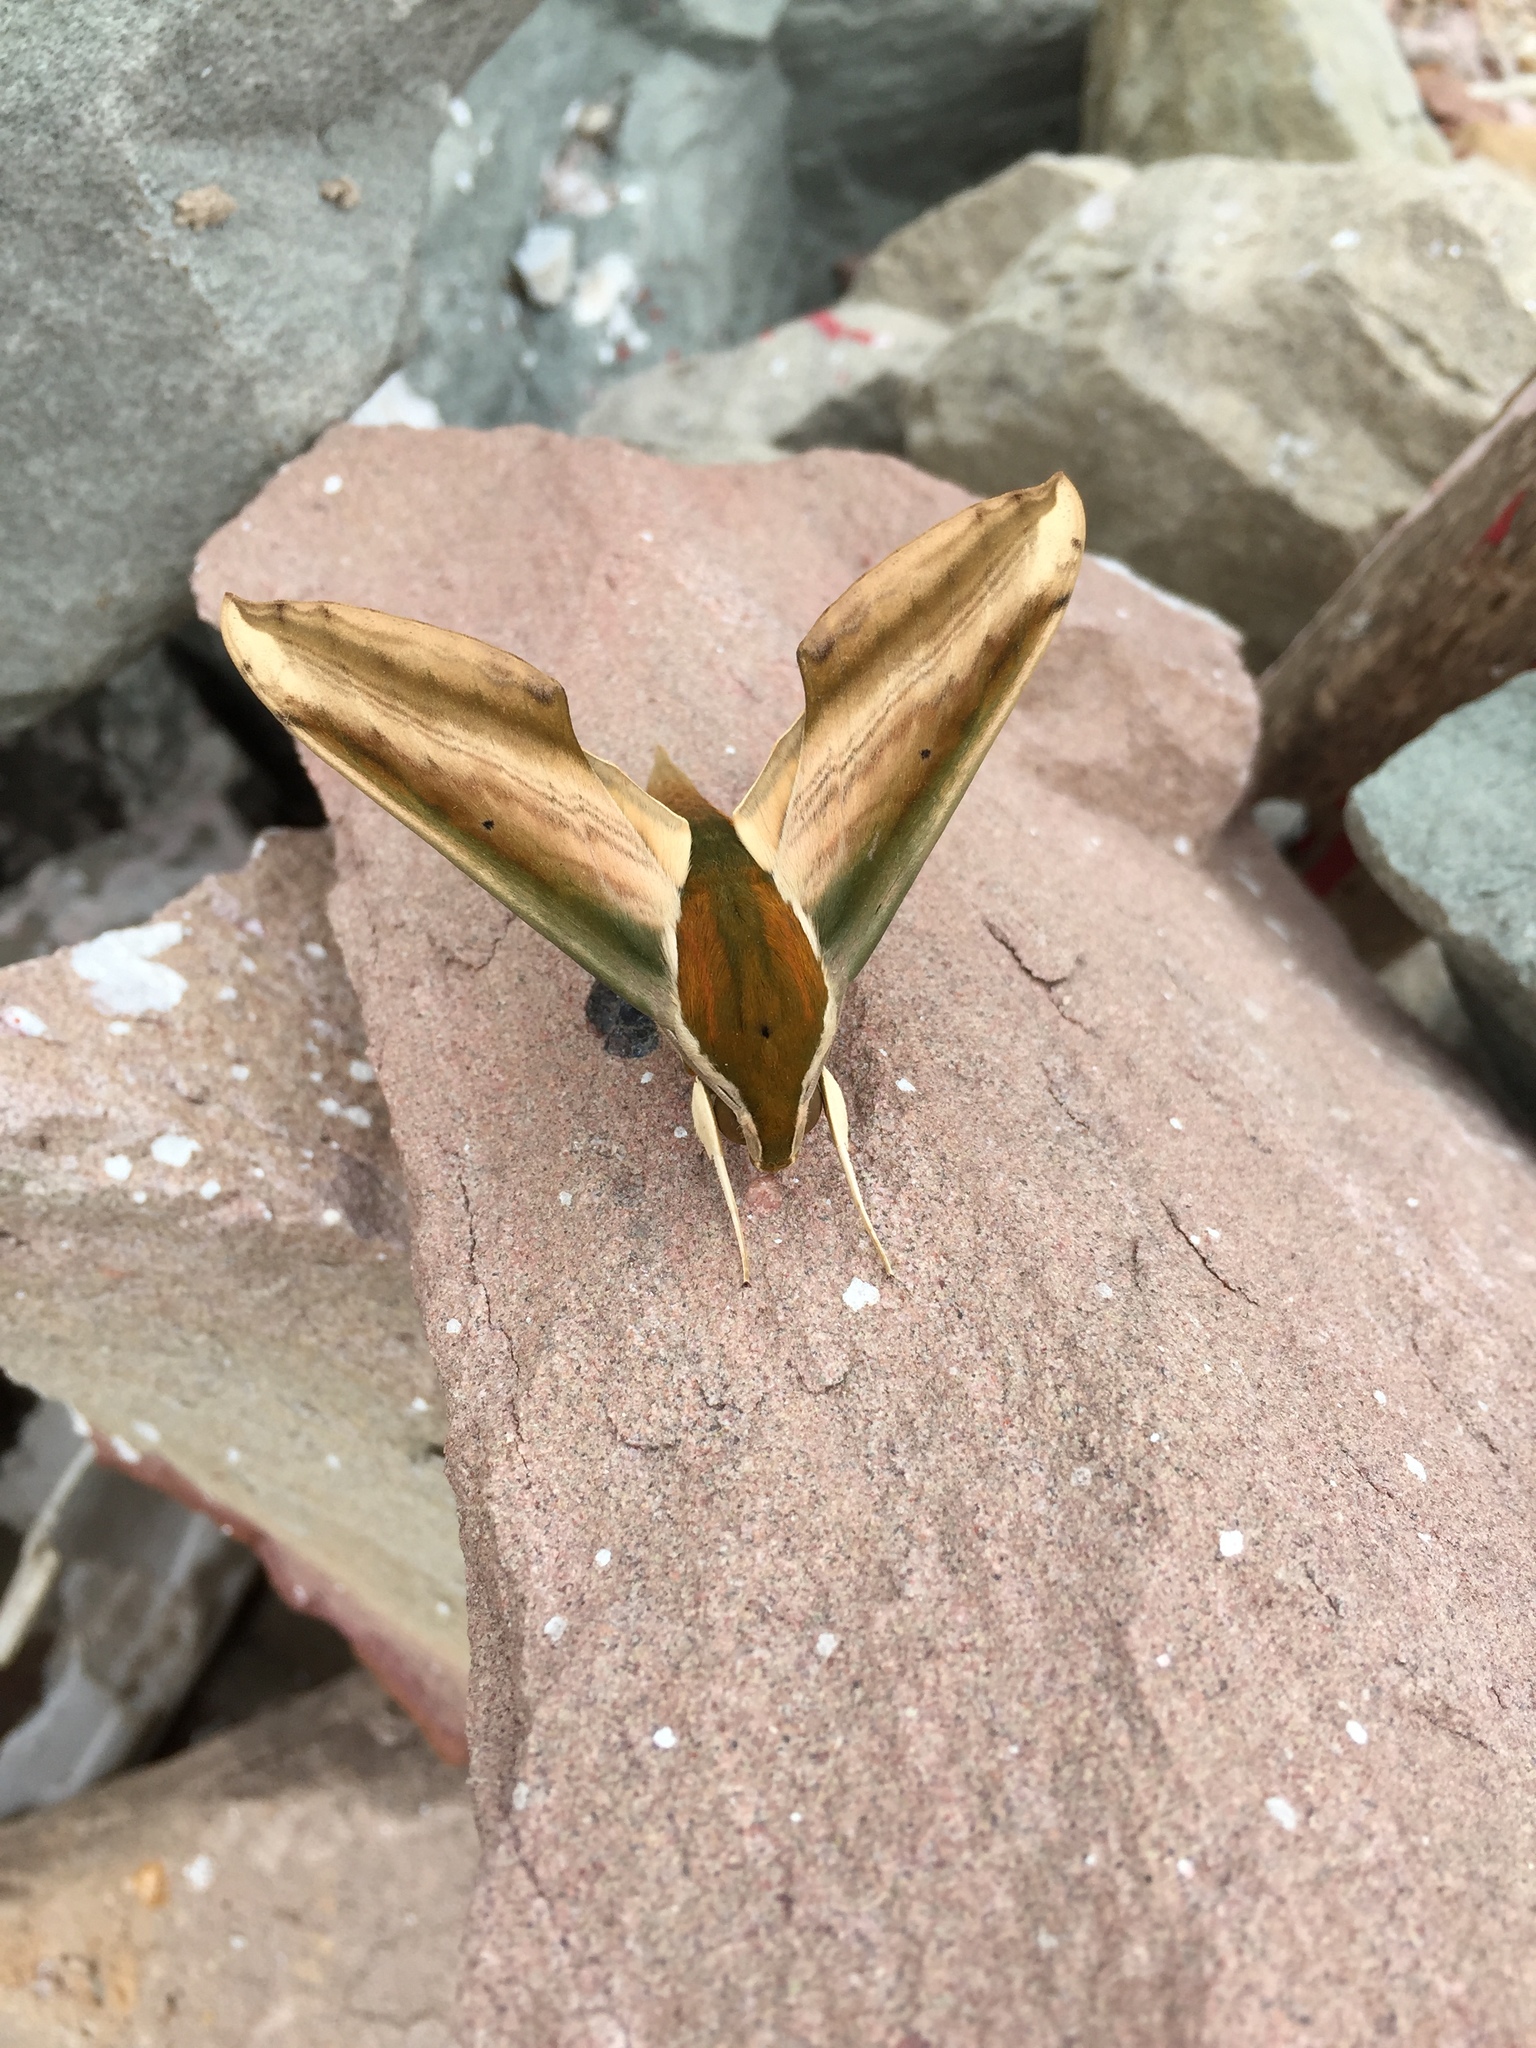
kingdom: Animalia
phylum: Arthropoda
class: Insecta
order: Lepidoptera
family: Sphingidae
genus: Theretra
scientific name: Theretra nessus
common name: Yam hawk moth
